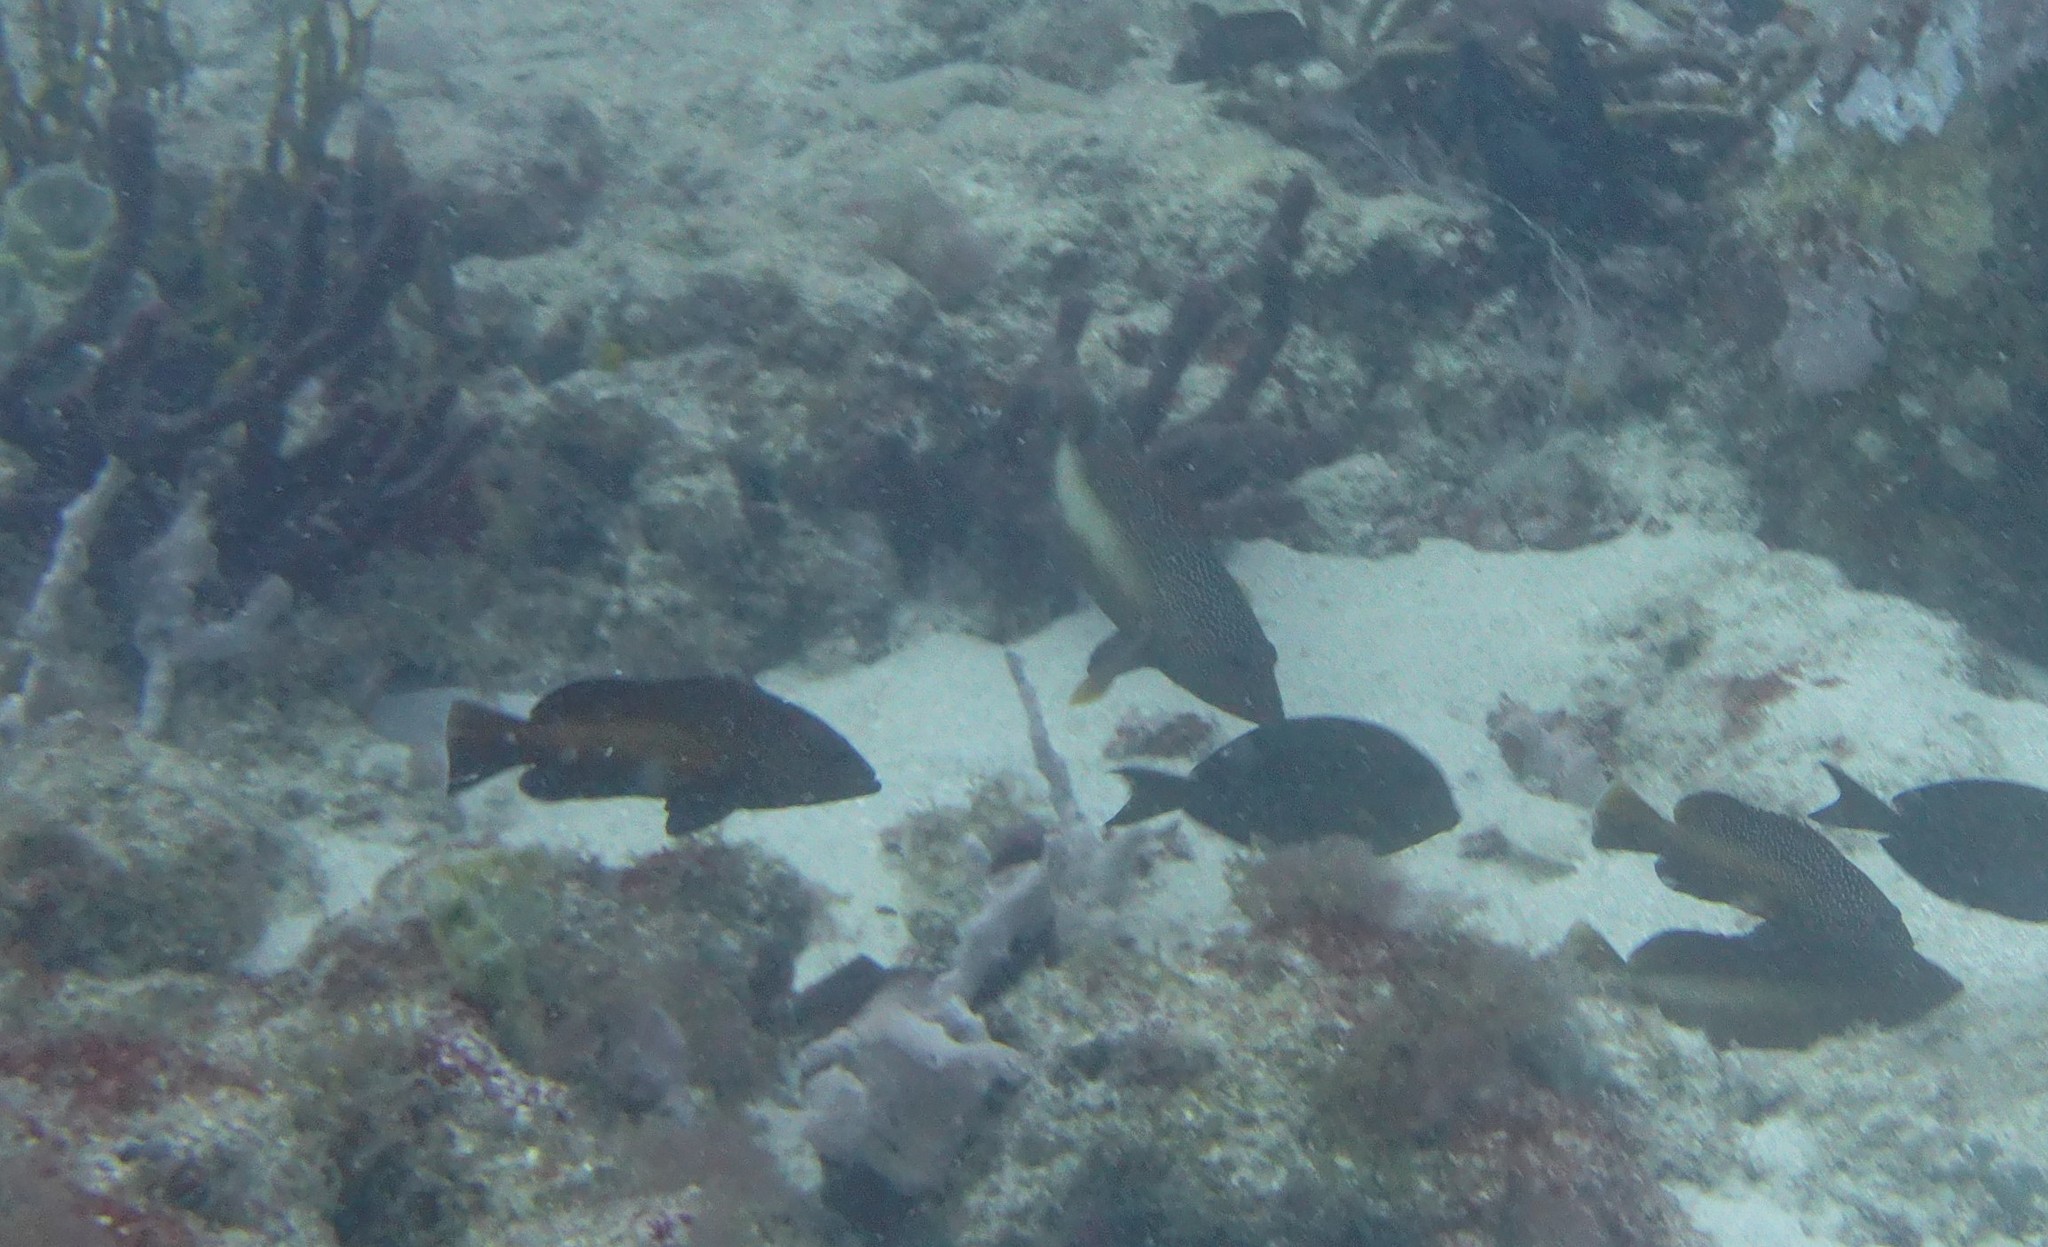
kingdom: Animalia
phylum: Chordata
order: Perciformes
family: Serranidae
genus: Cephalopholis
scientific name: Cephalopholis fulva
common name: Butterfish
